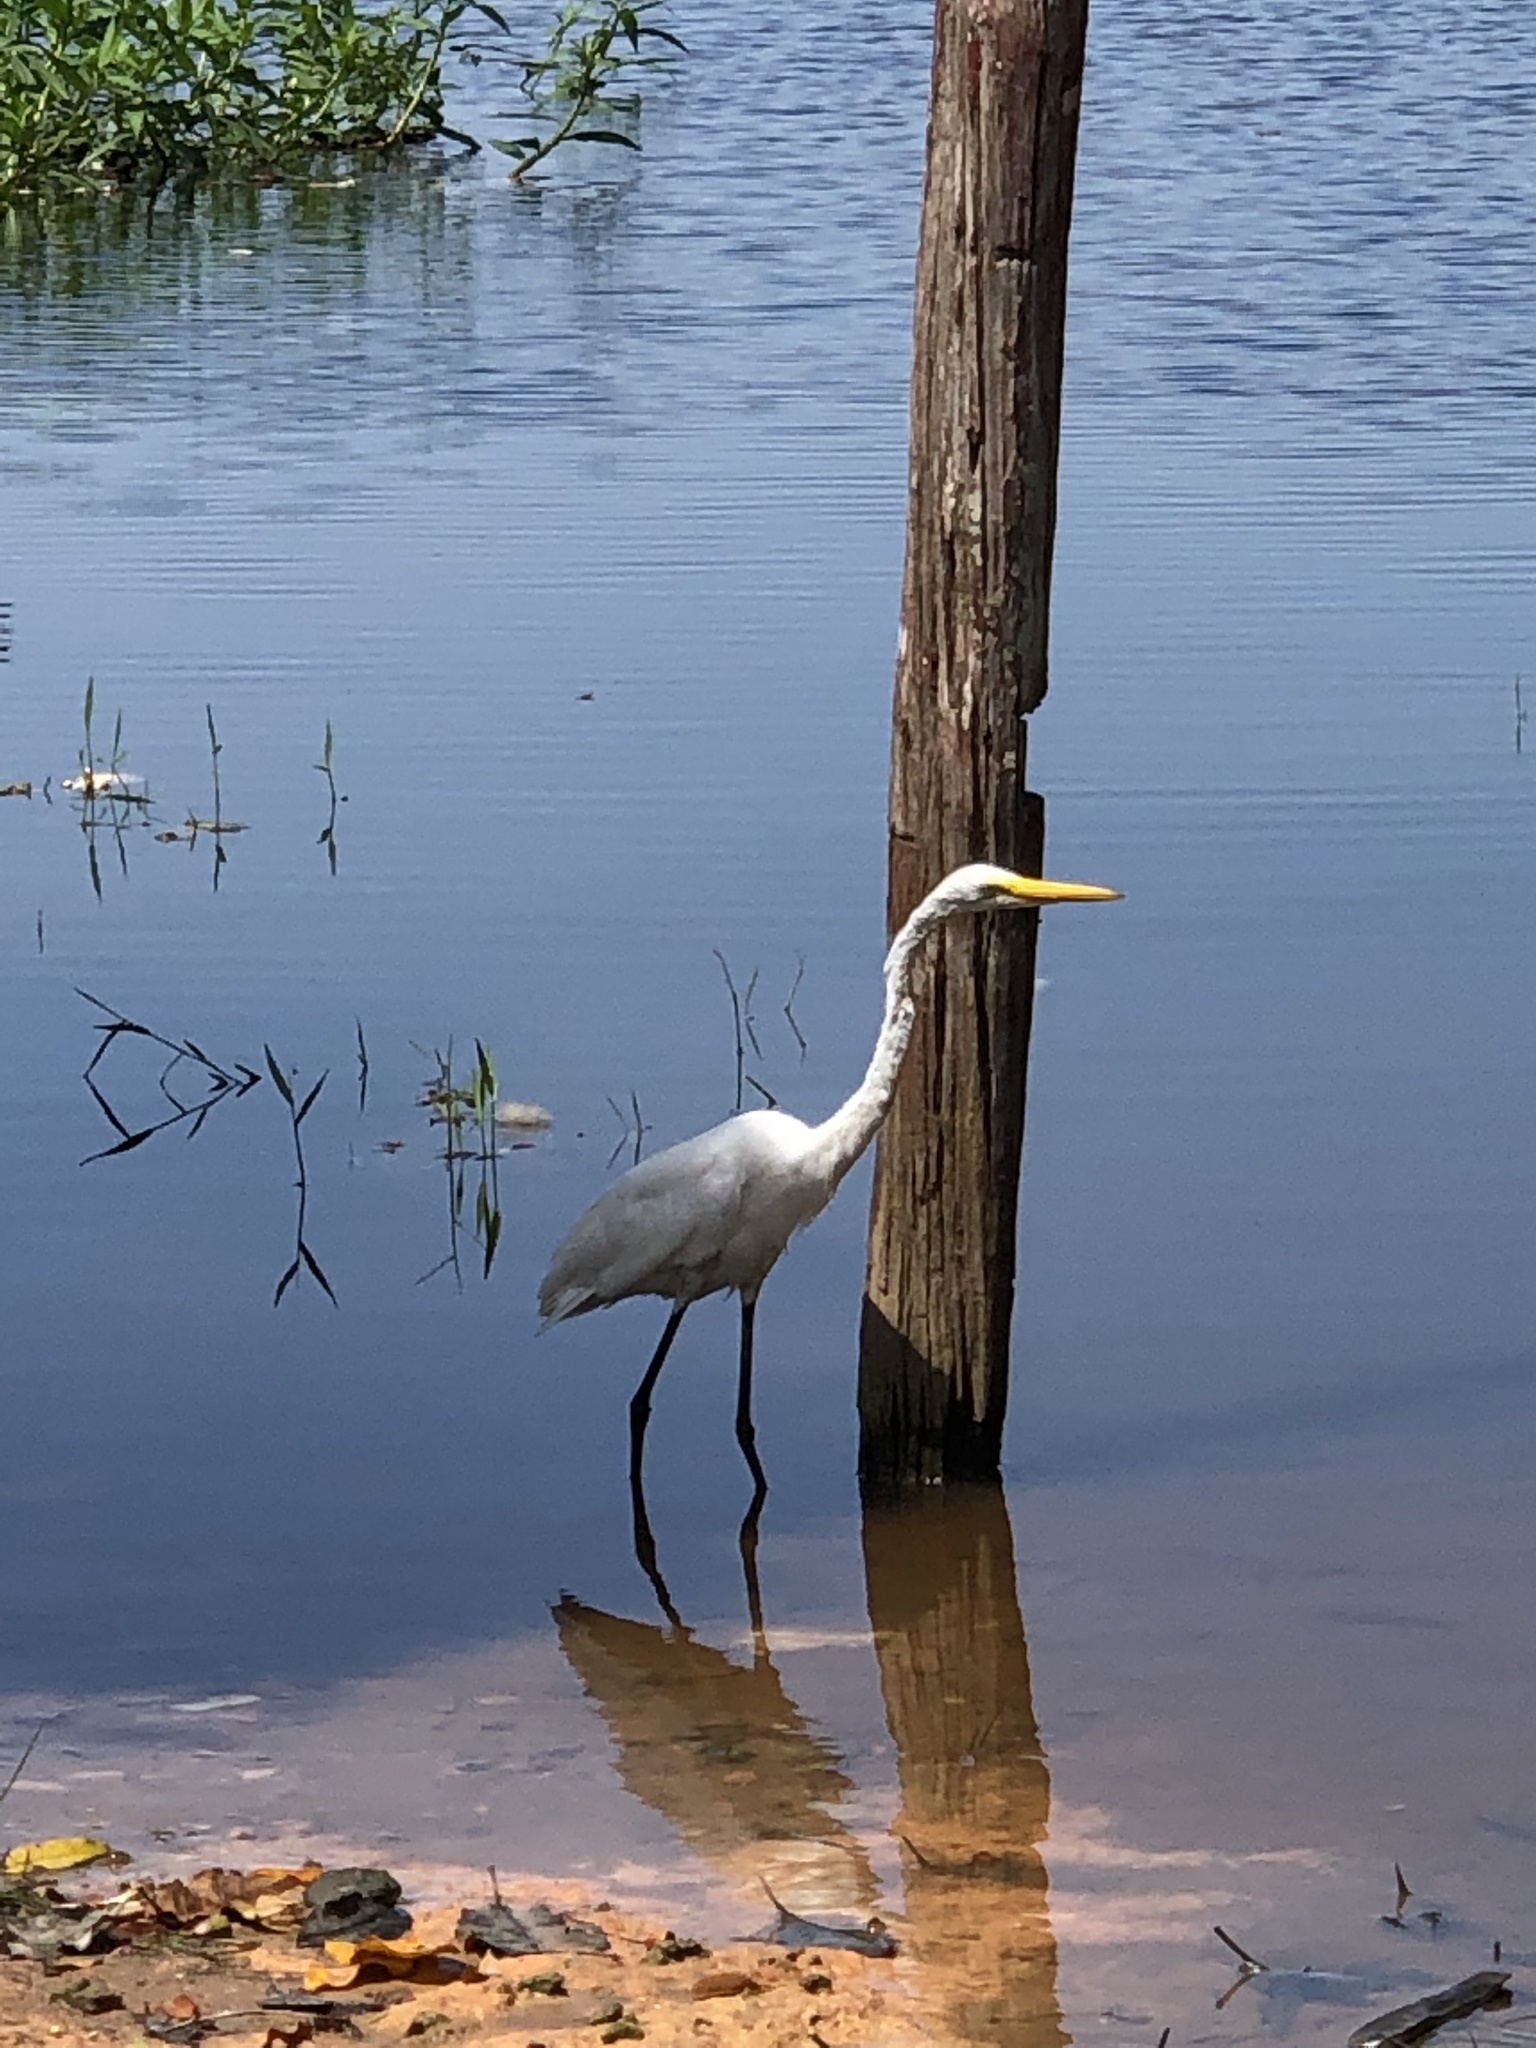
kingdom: Animalia
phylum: Chordata
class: Aves
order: Pelecaniformes
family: Ardeidae
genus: Ardea
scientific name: Ardea alba
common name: Great egret
